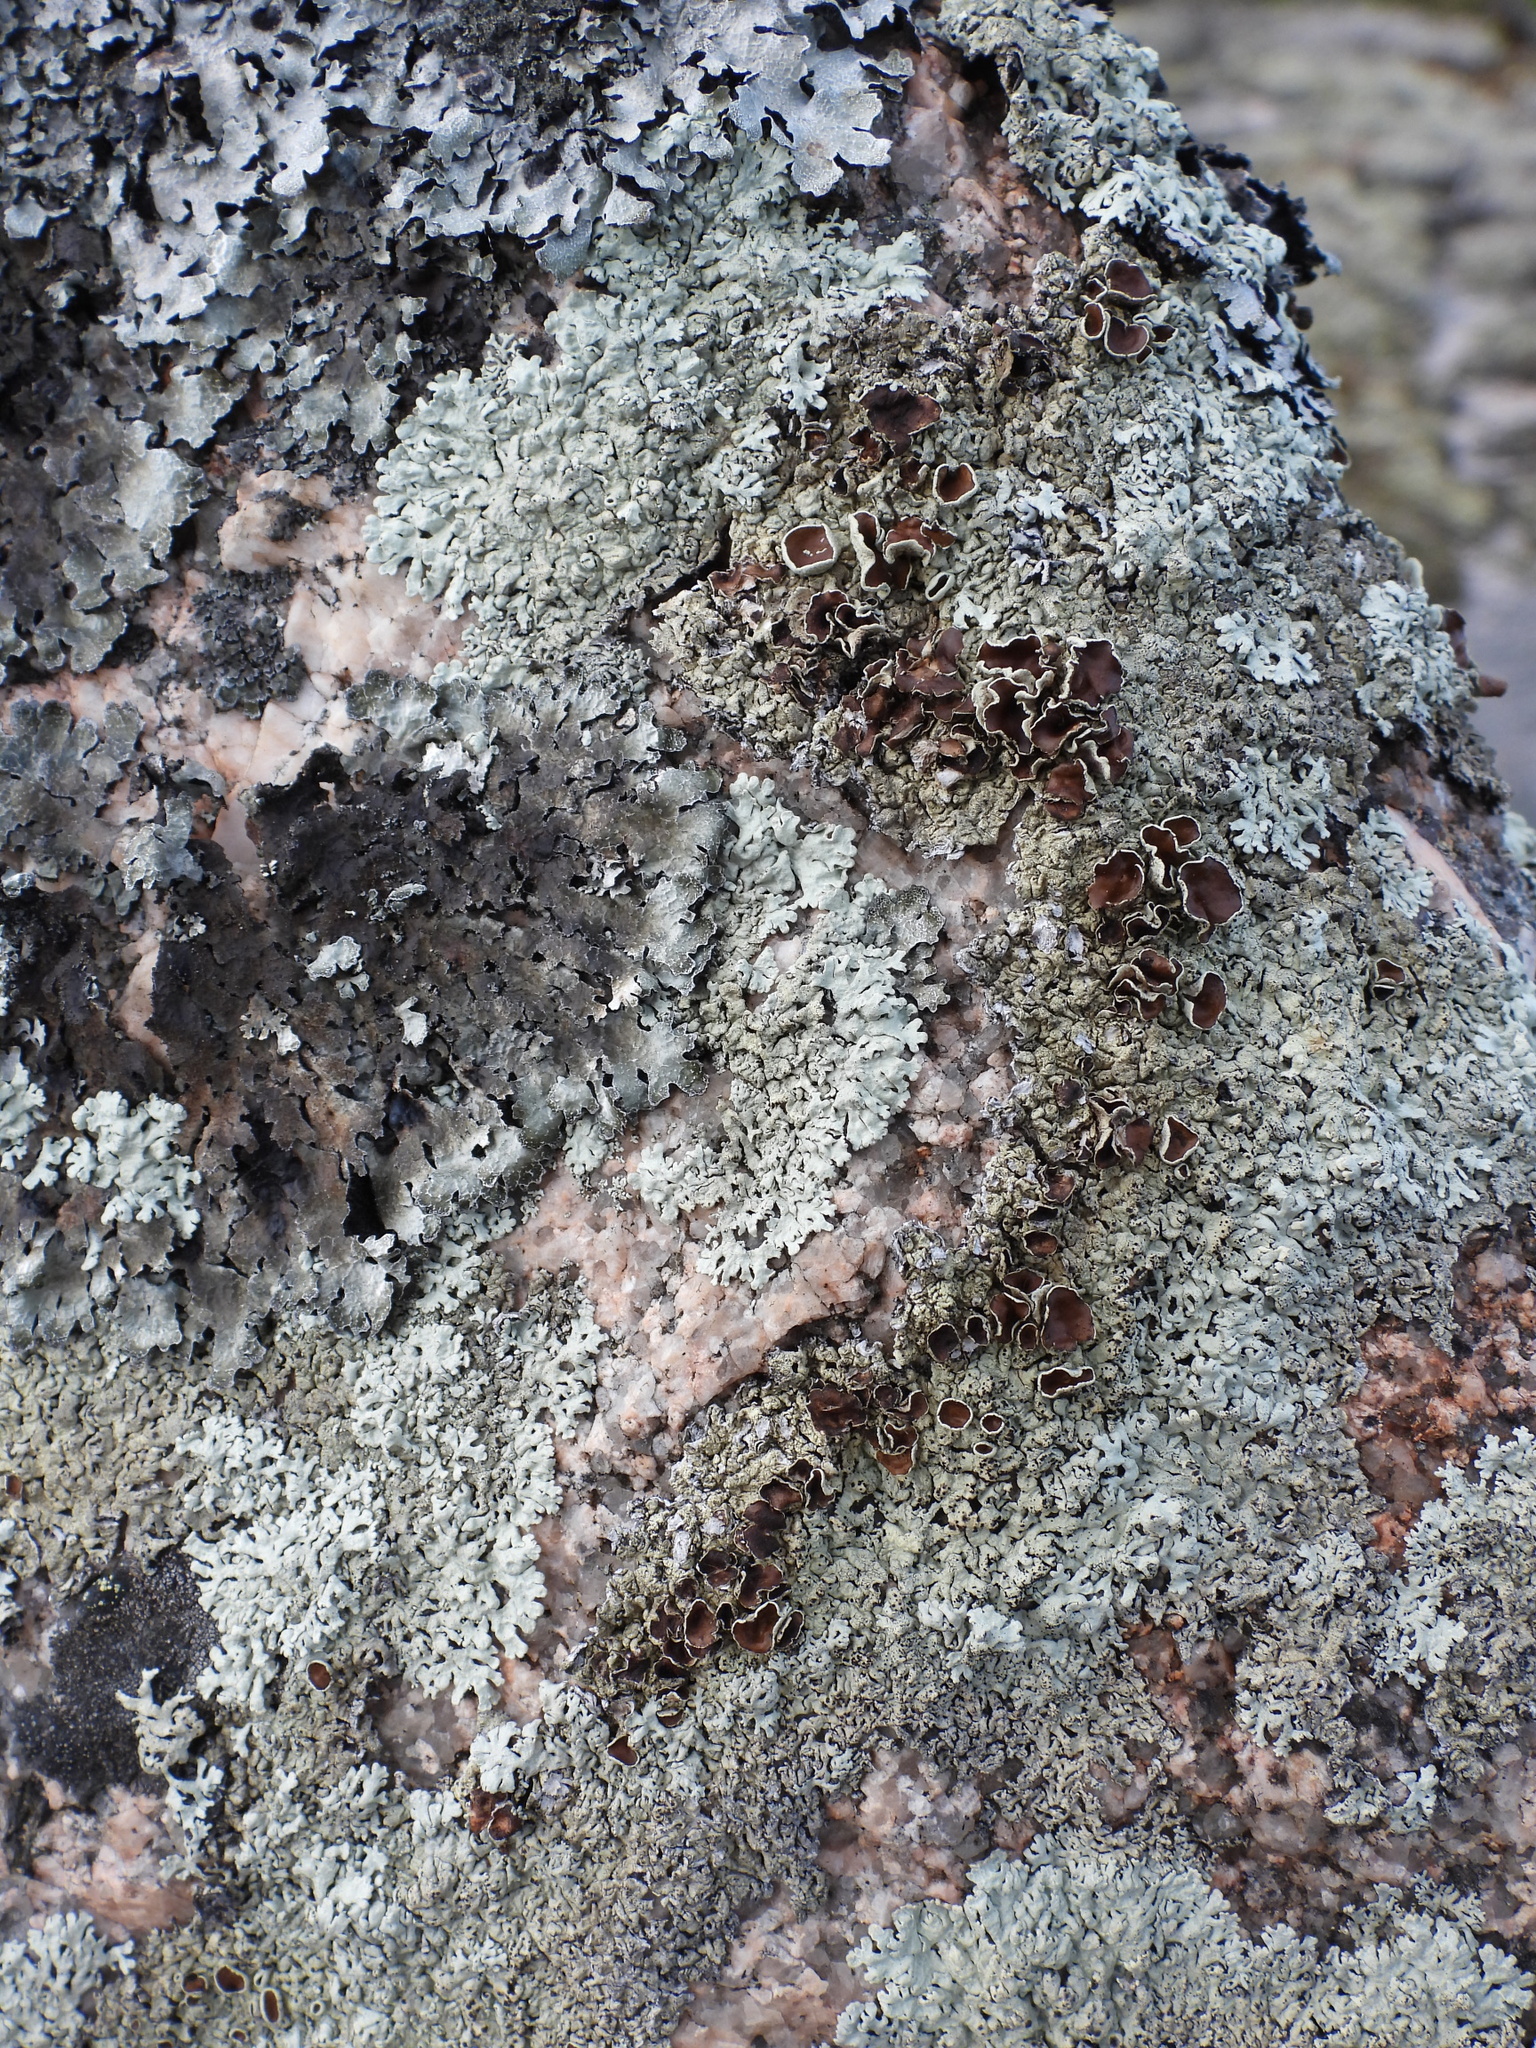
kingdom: Fungi
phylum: Ascomycota
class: Lecanoromycetes
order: Lecanorales
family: Parmeliaceae
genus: Arctoparmelia
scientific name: Arctoparmelia centrifuga
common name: Concentric ring lichen
